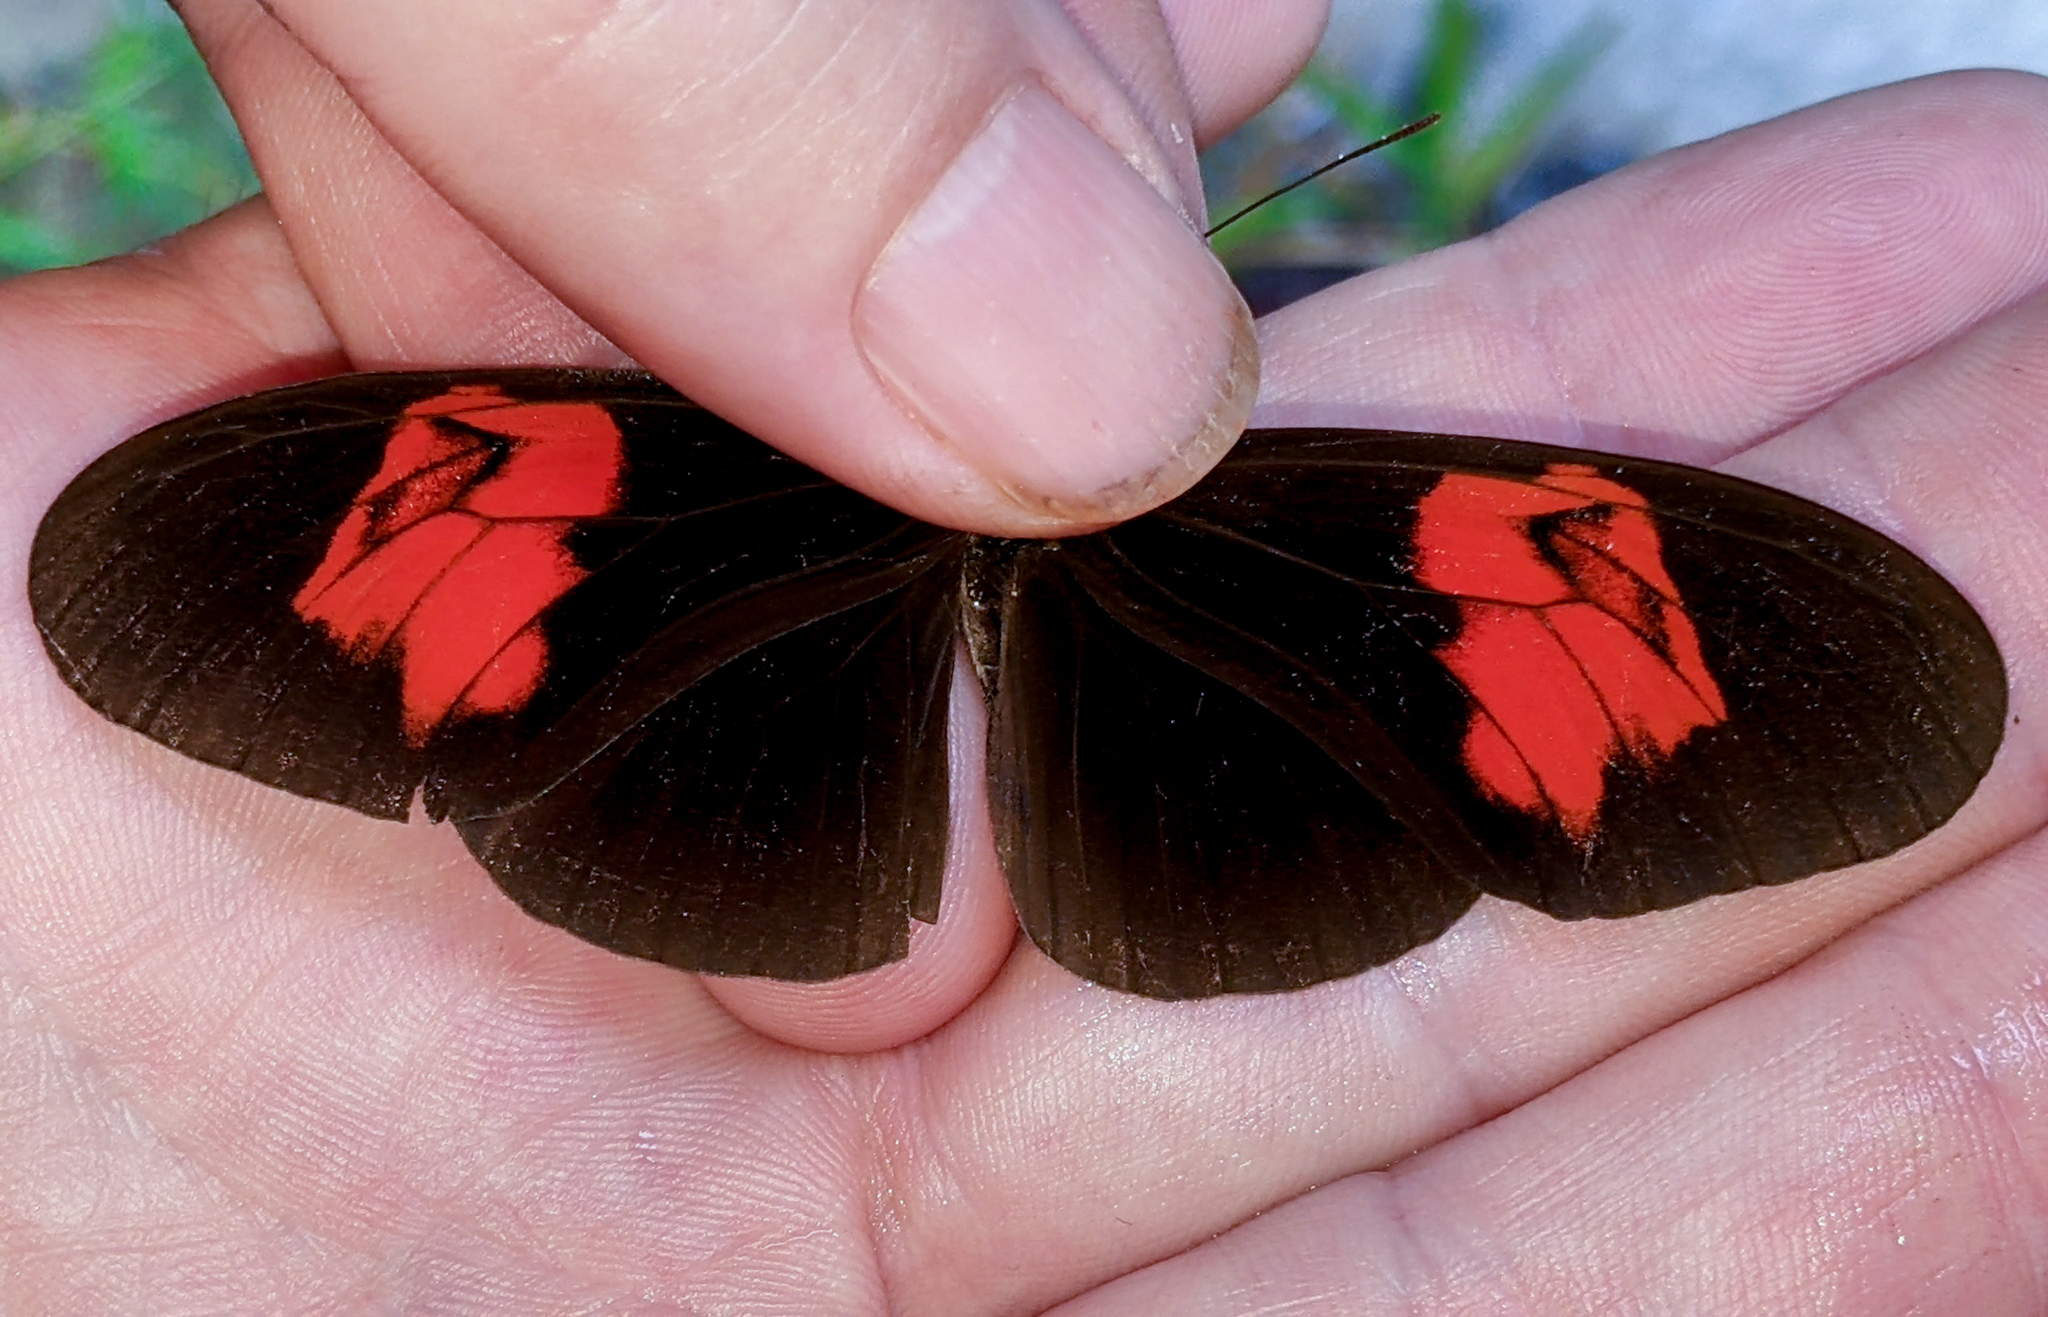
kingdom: Animalia
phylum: Arthropoda
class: Insecta
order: Lepidoptera
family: Nymphalidae
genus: Heliconius
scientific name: Heliconius erato
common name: Common patch longwing
